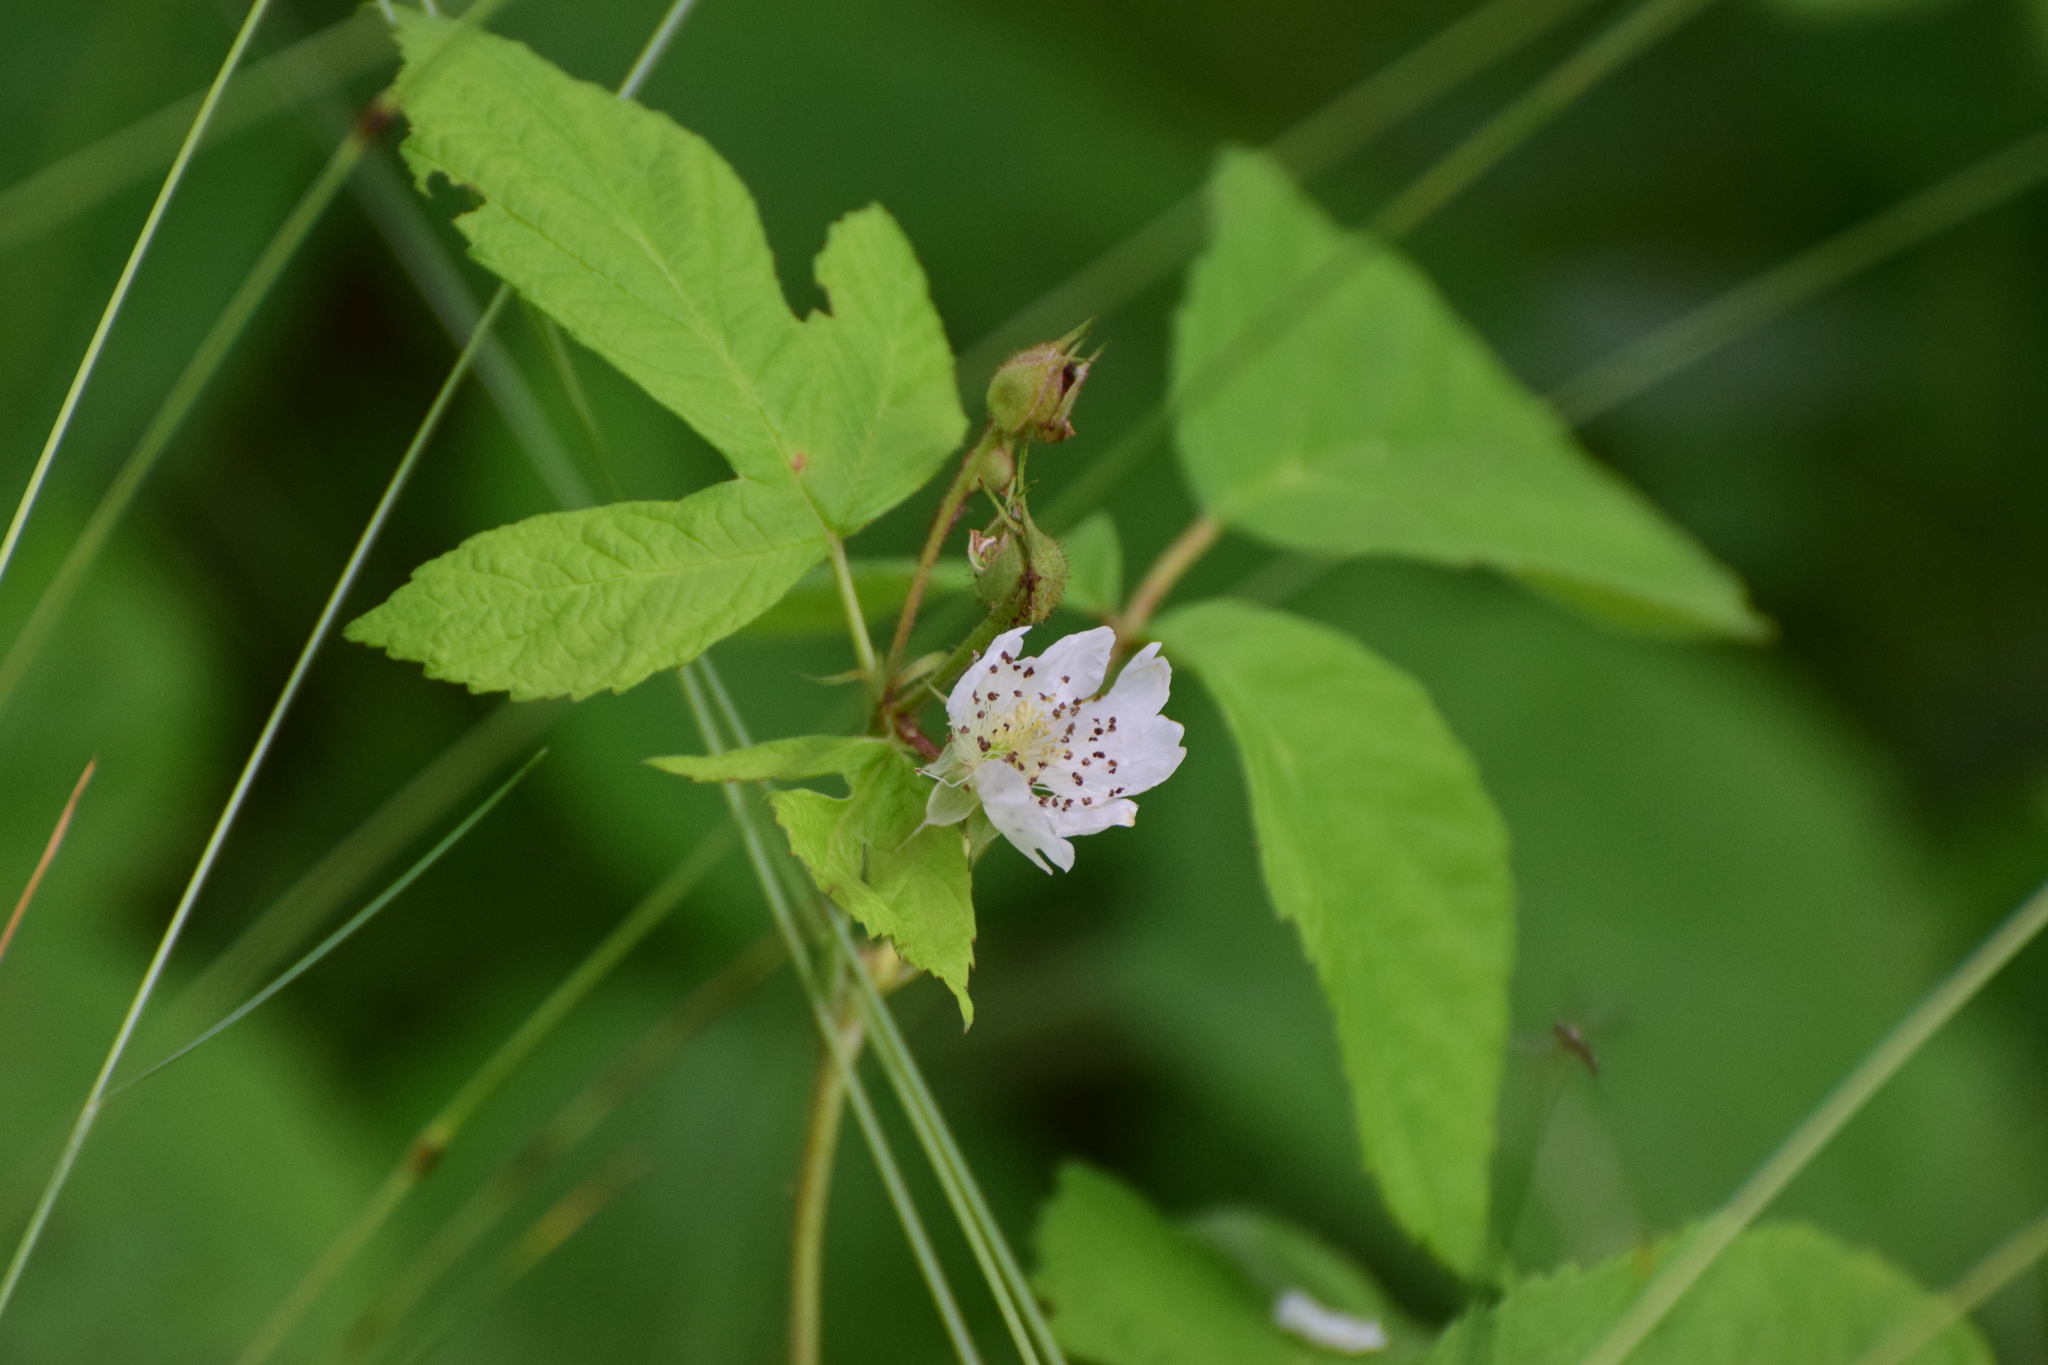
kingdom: Plantae
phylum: Tracheophyta
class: Magnoliopsida
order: Rosales
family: Rosaceae
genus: Rubus
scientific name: Rubus caesius
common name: Dewberry
